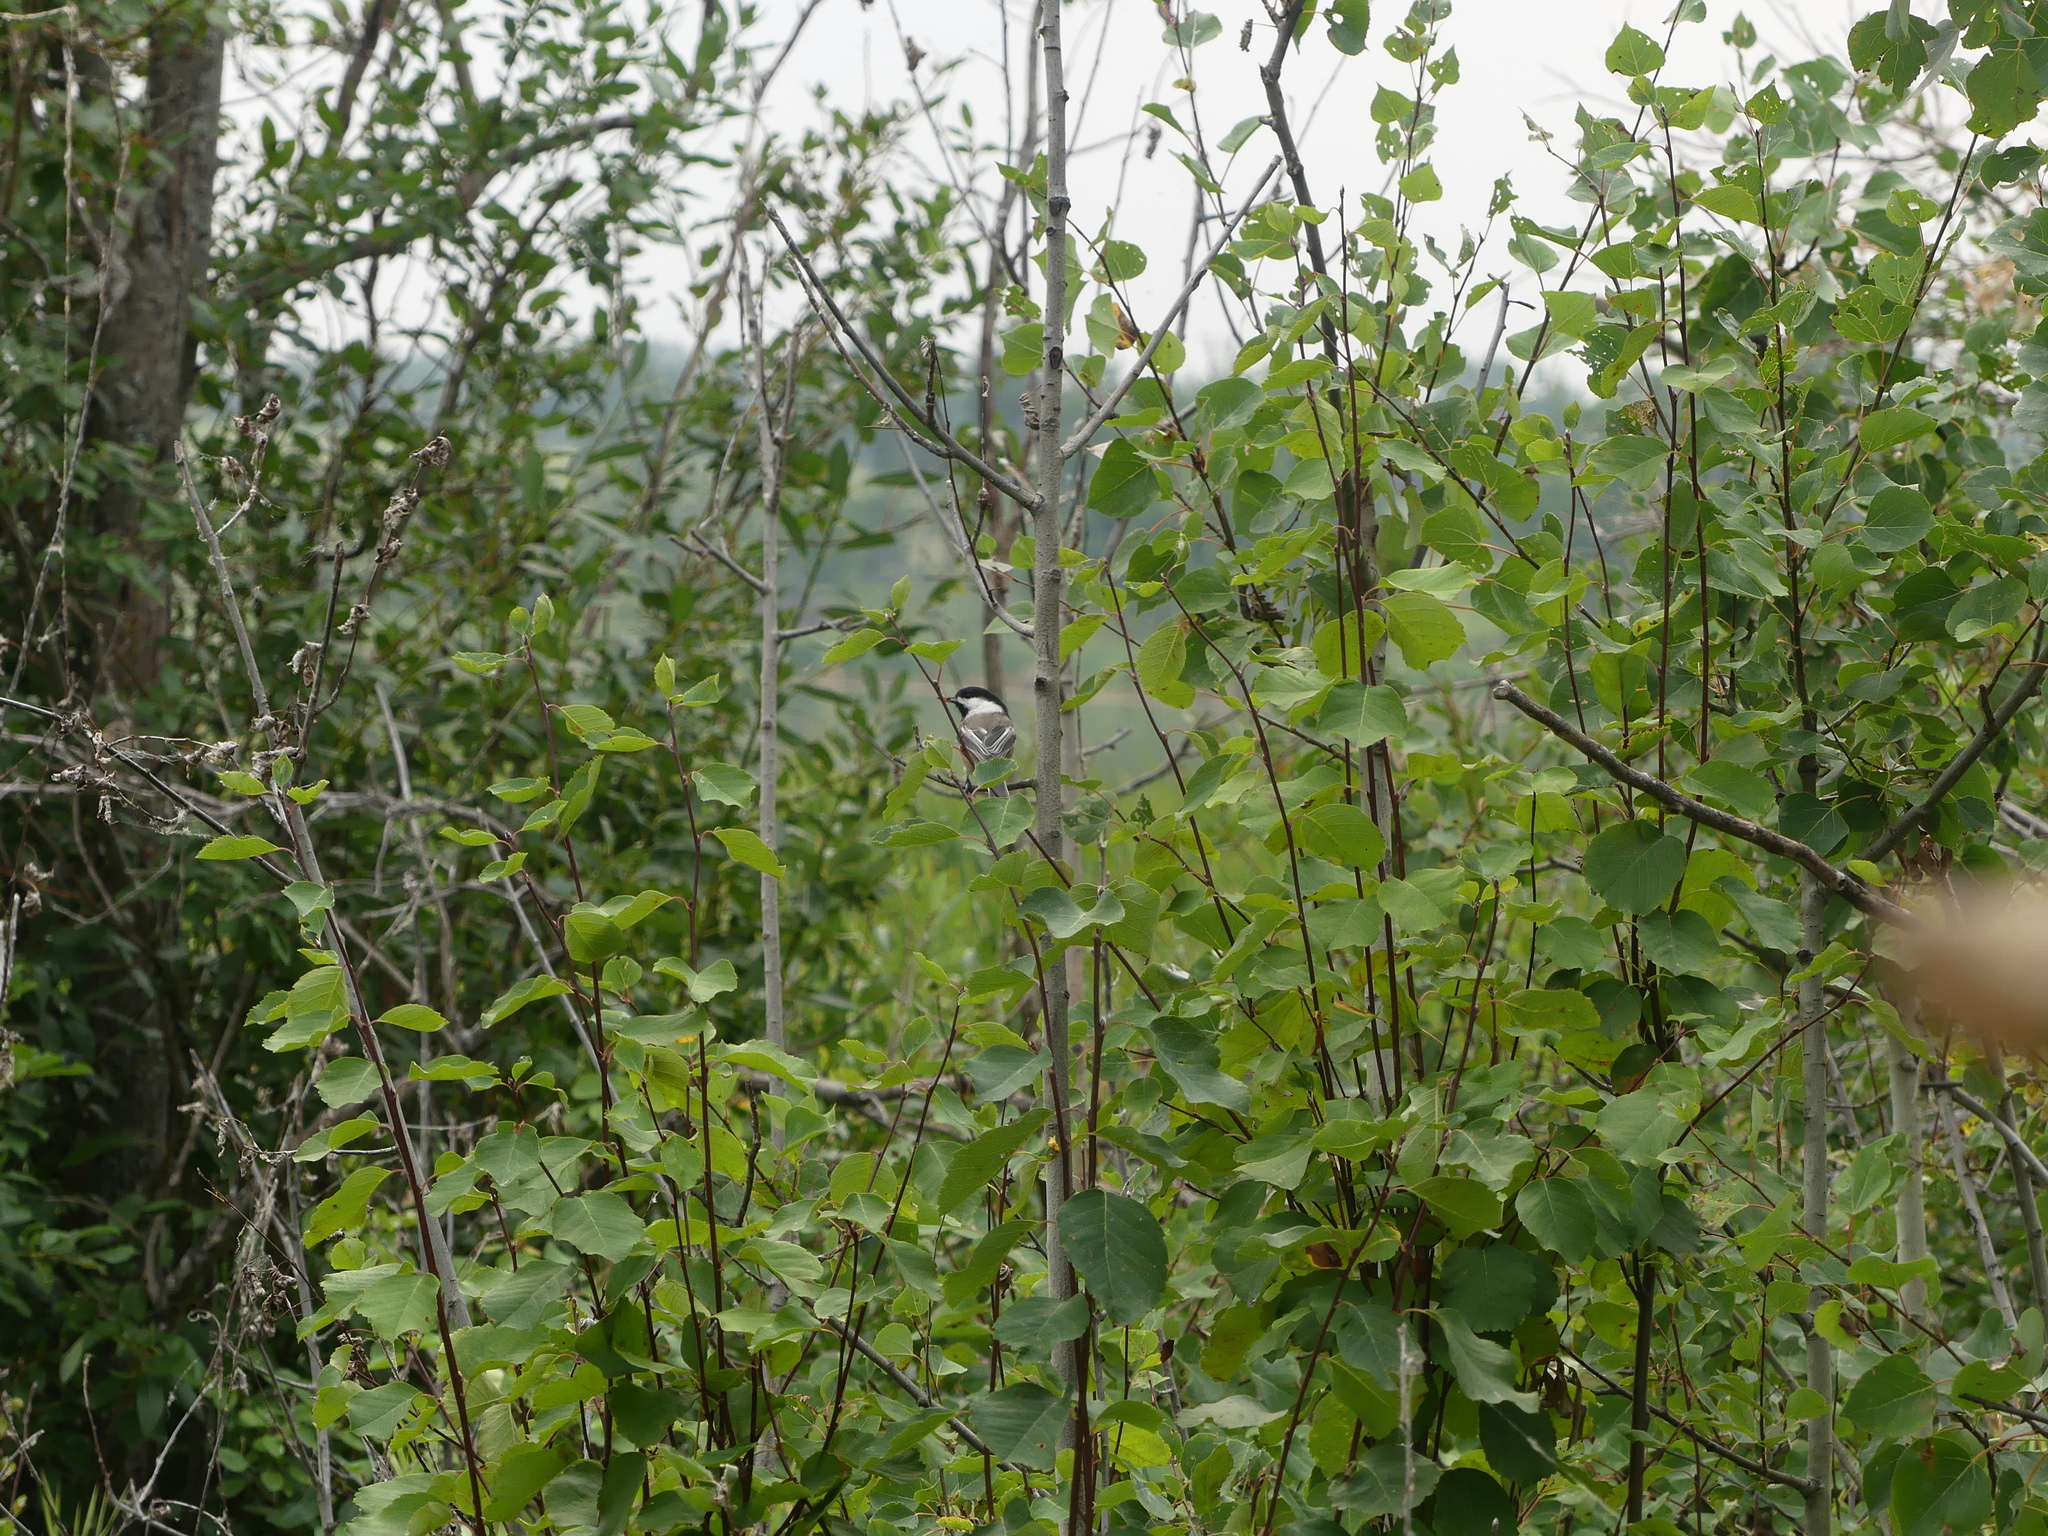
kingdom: Animalia
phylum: Chordata
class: Aves
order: Passeriformes
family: Paridae
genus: Poecile
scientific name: Poecile atricapillus
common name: Black-capped chickadee
